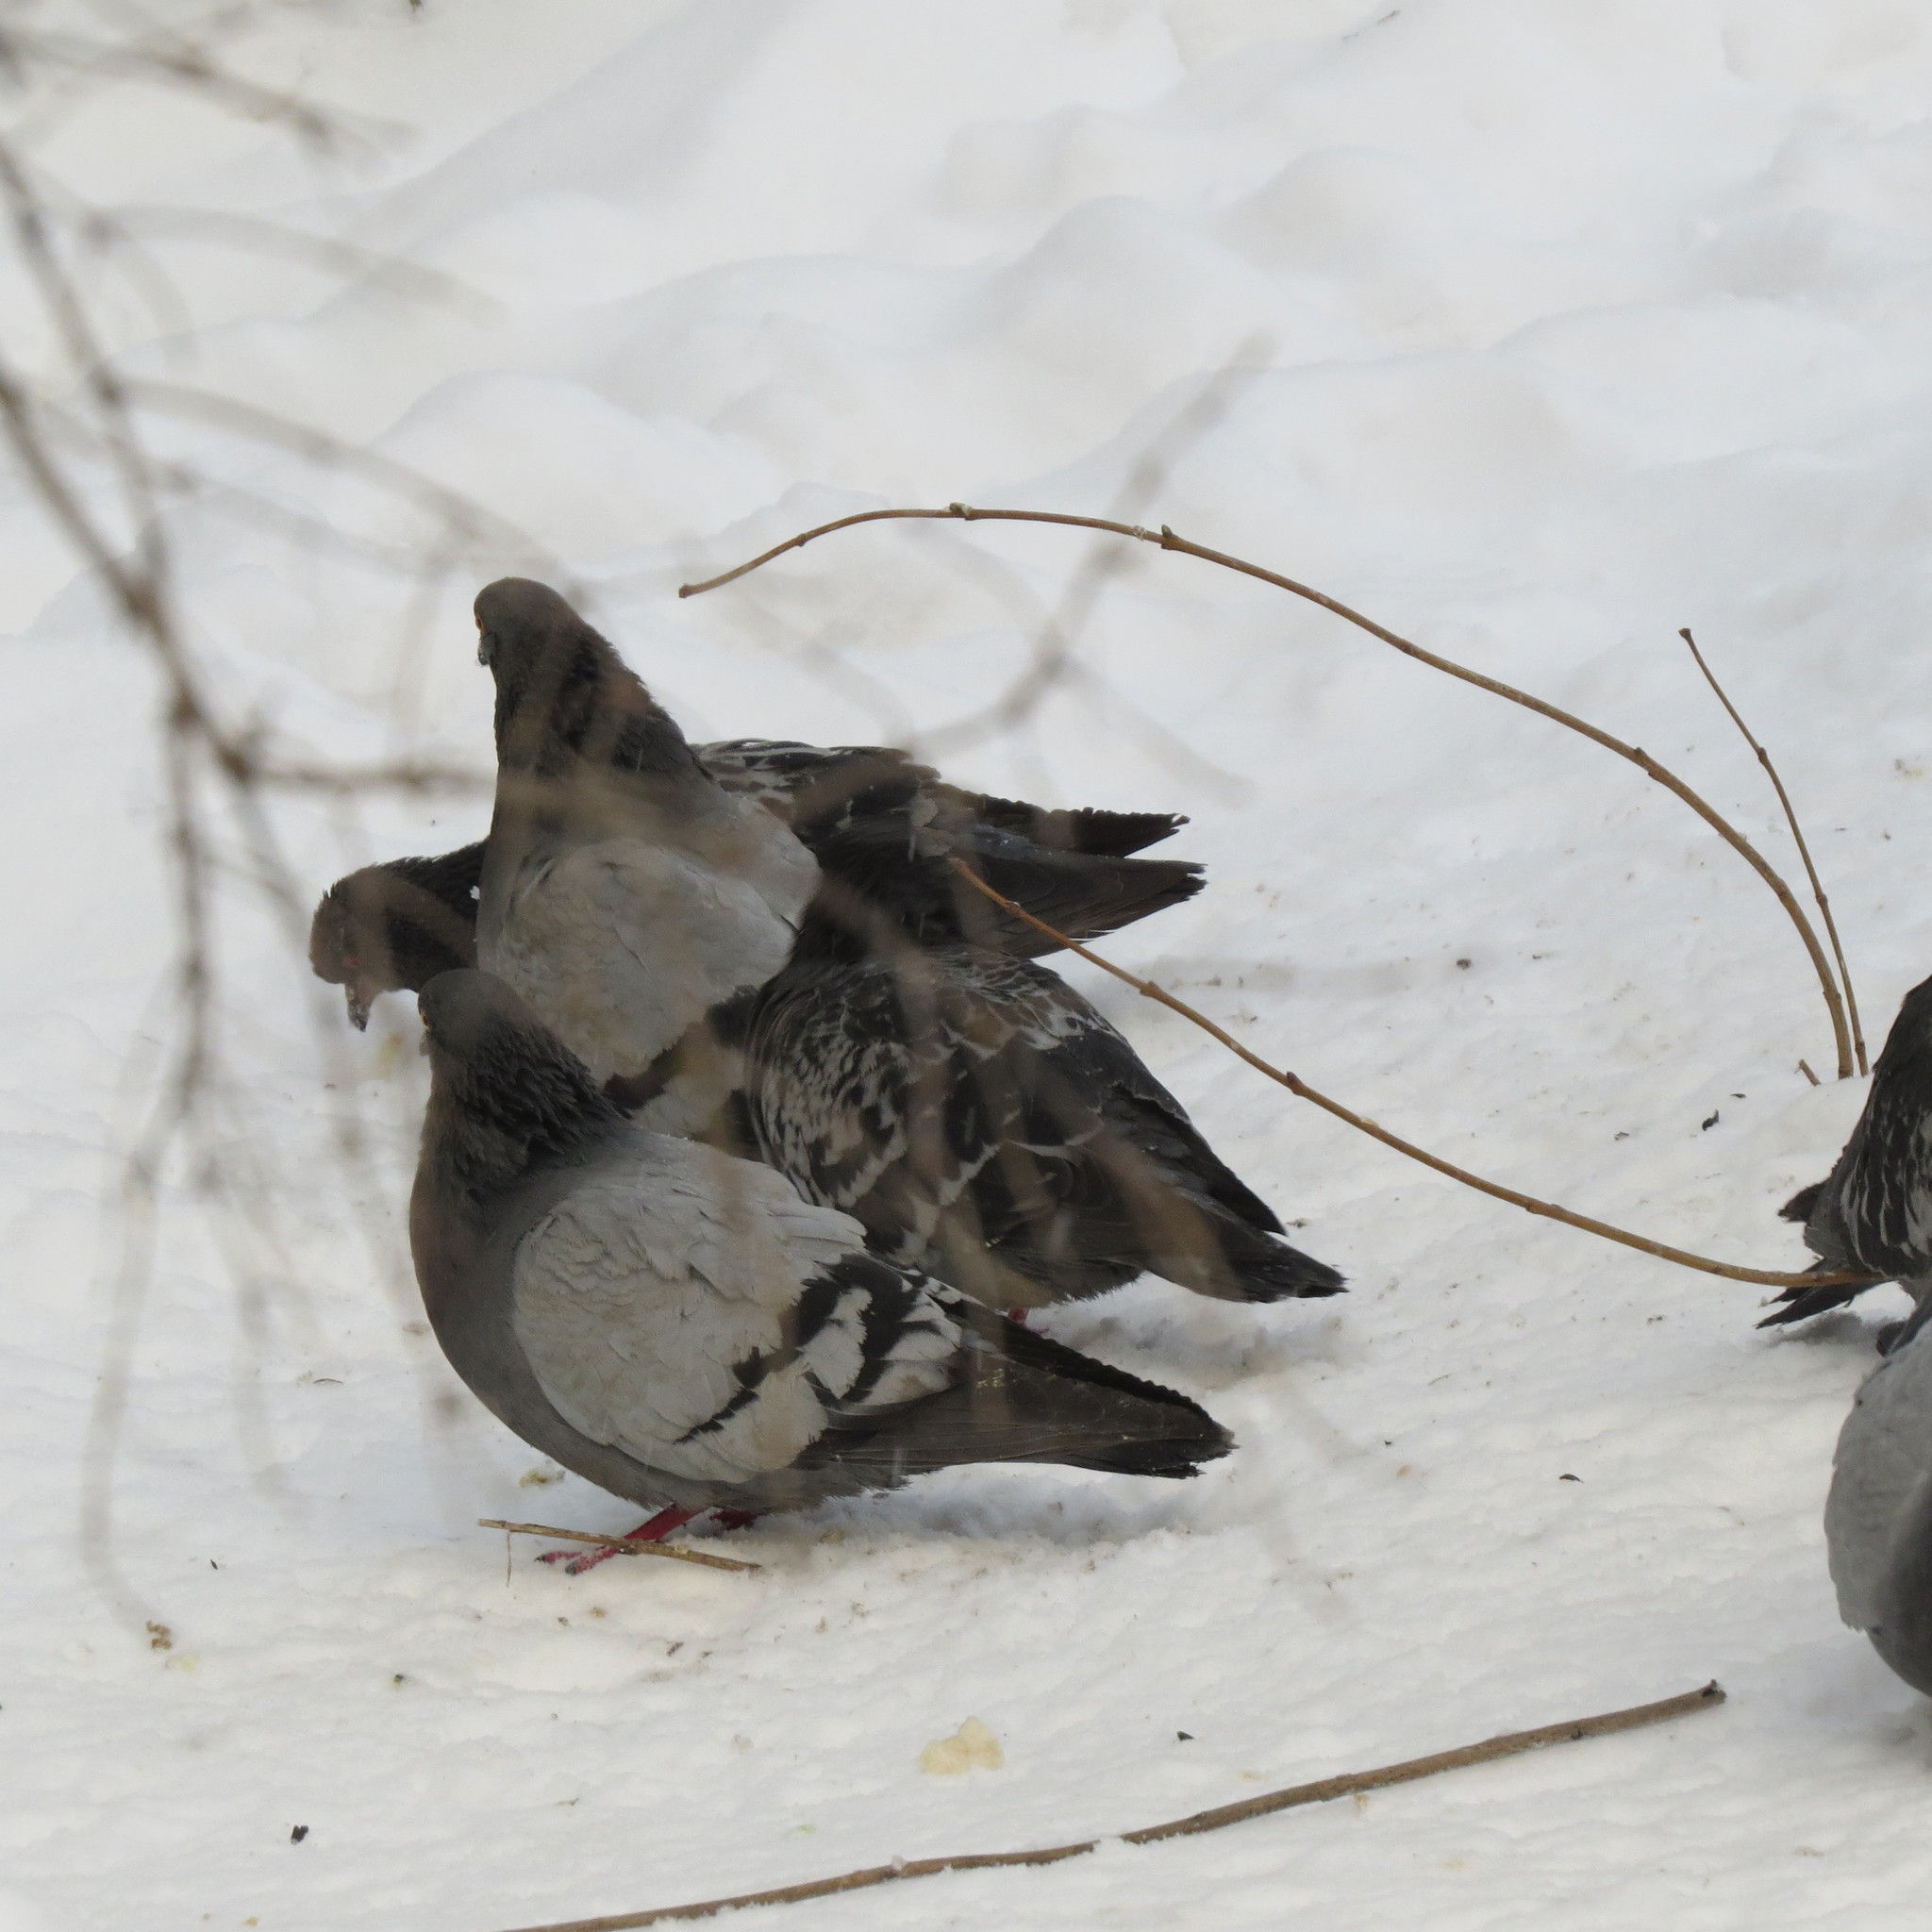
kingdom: Animalia
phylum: Chordata
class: Aves
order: Columbiformes
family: Columbidae
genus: Columba
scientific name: Columba livia
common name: Rock pigeon
